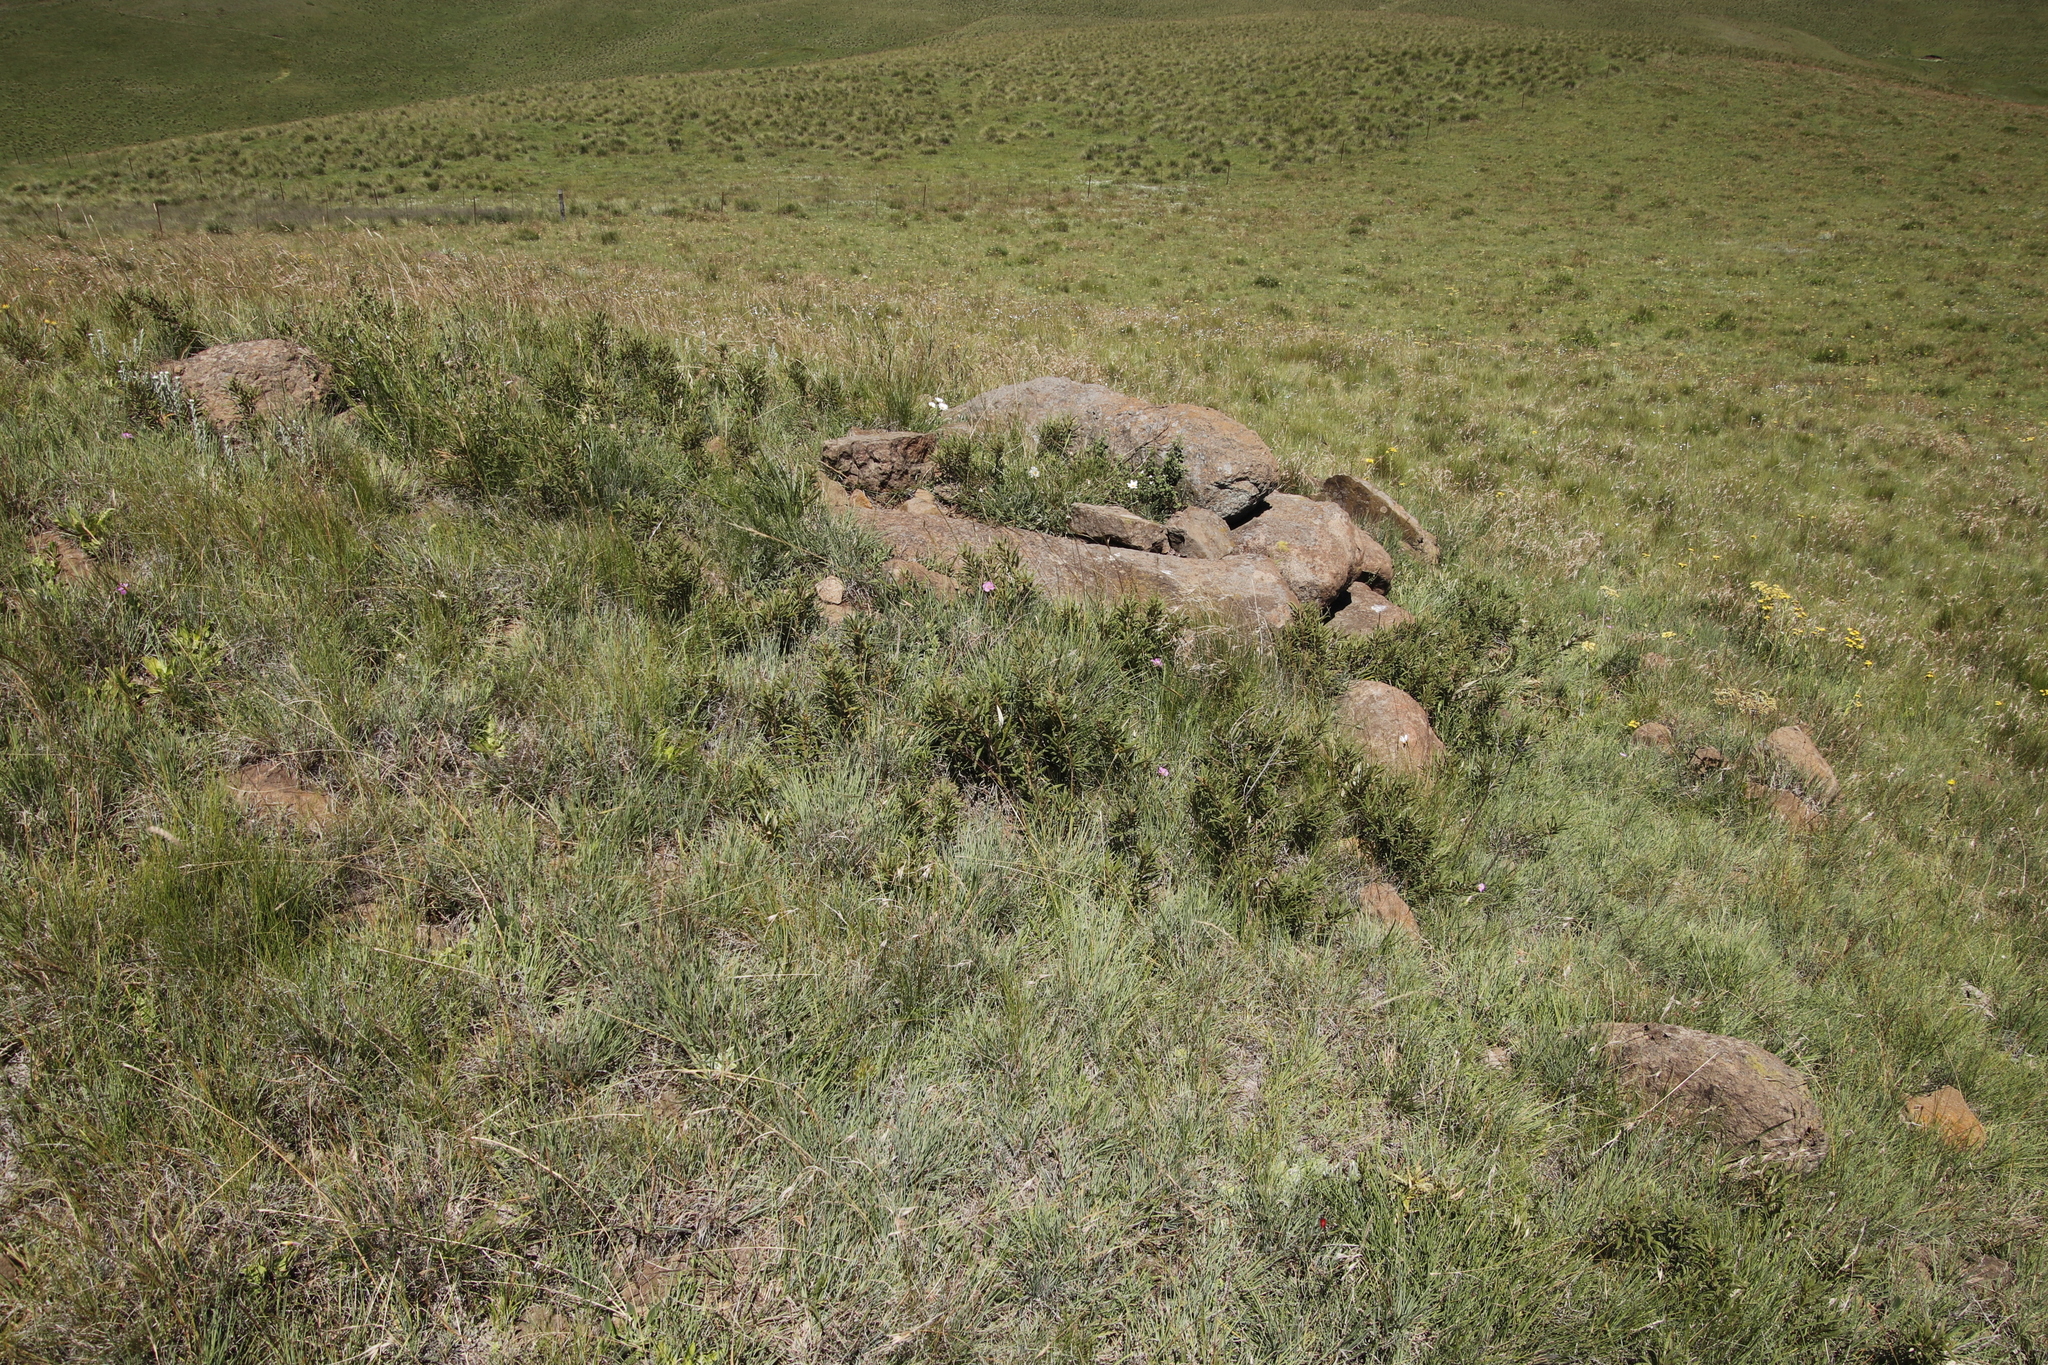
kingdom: Plantae
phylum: Tracheophyta
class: Magnoliopsida
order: Sapindales
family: Anacardiaceae
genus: Searsia
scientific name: Searsia discolor
